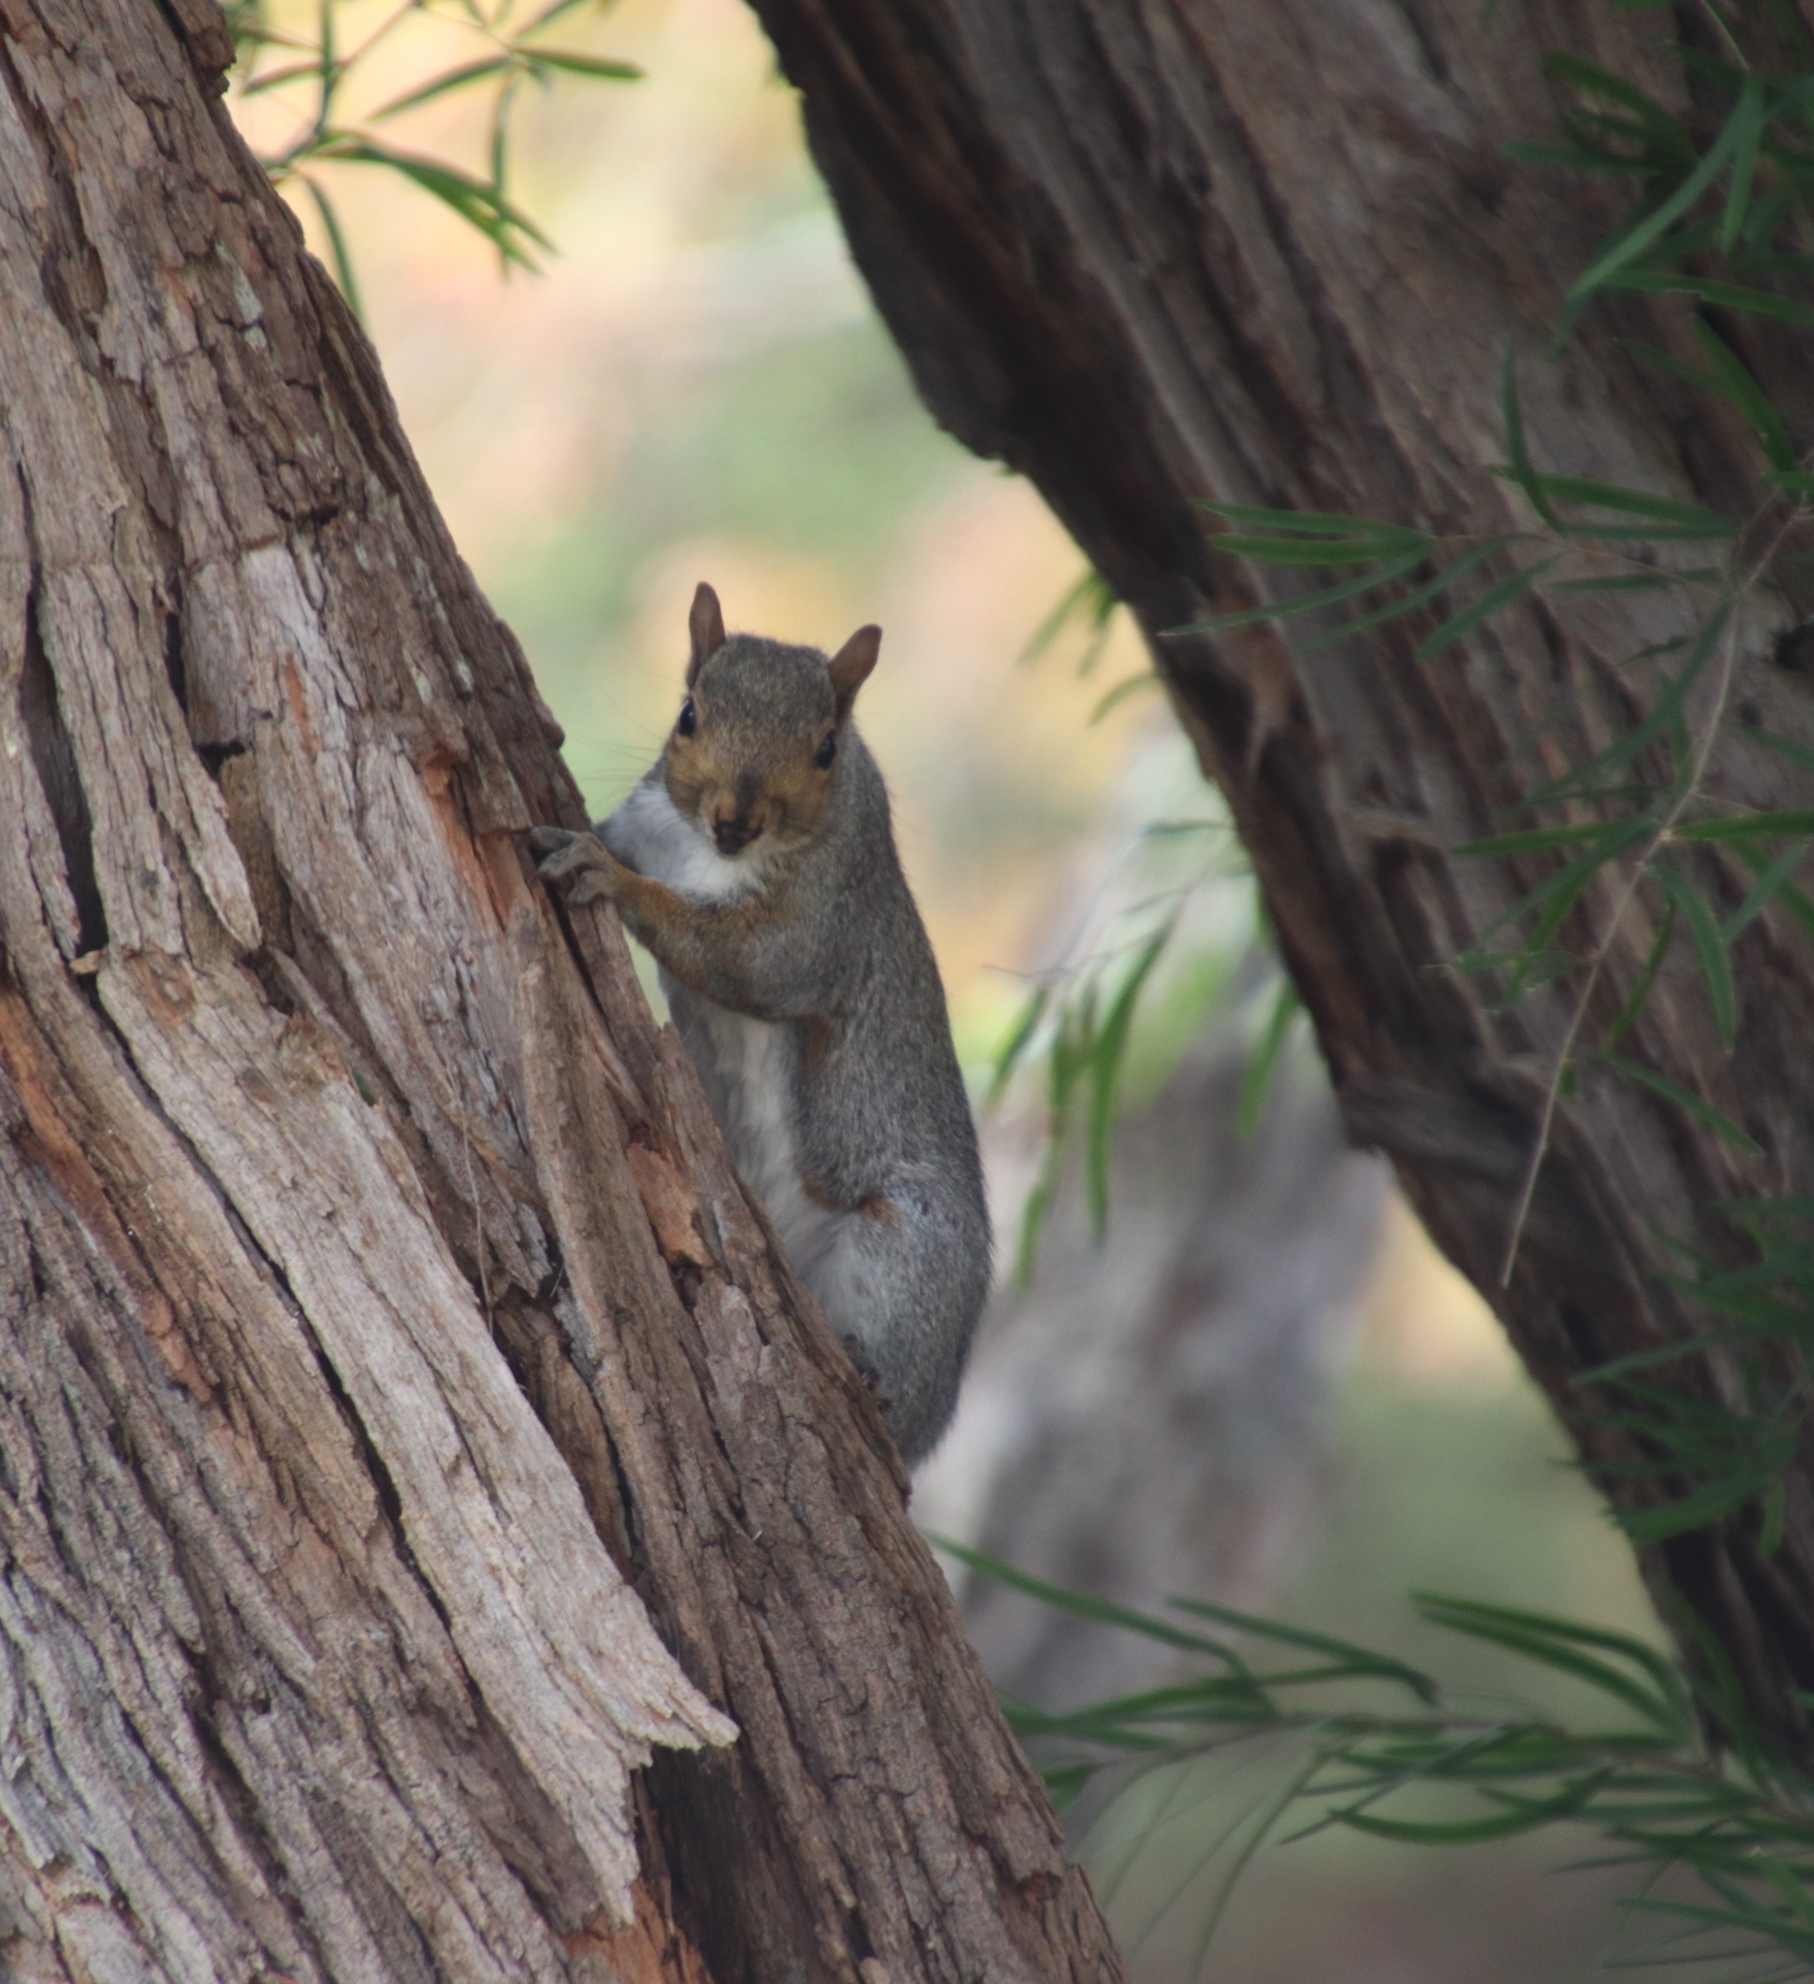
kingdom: Animalia
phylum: Chordata
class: Mammalia
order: Rodentia
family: Sciuridae
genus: Sciurus
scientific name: Sciurus carolinensis
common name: Eastern gray squirrel
